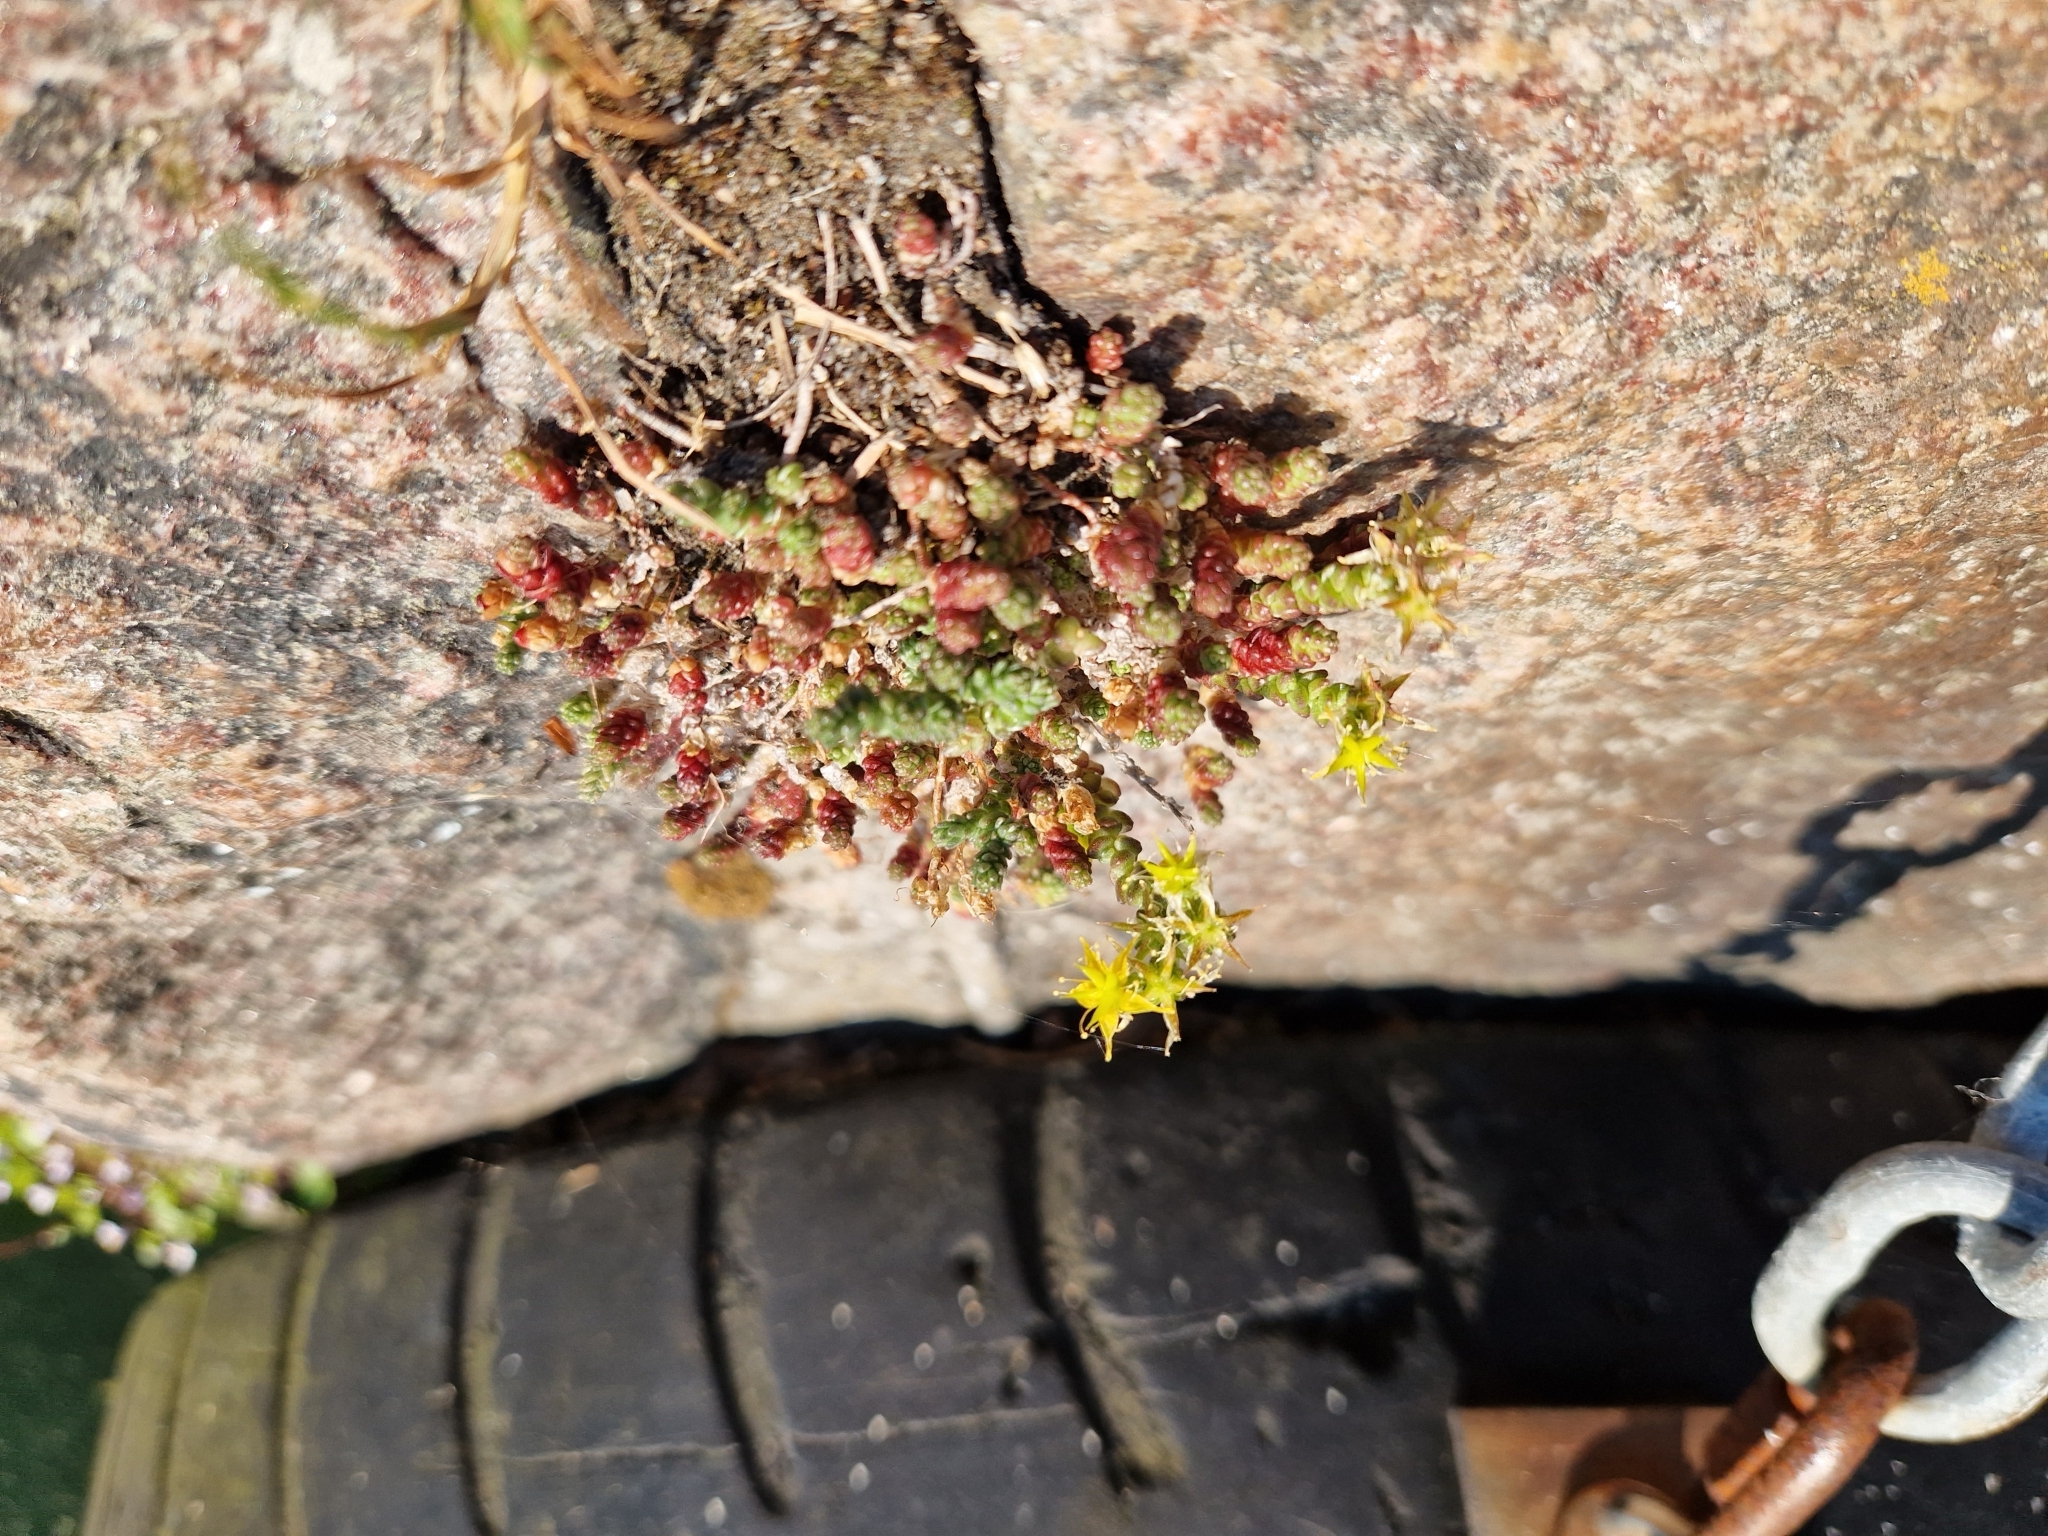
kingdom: Plantae
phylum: Tracheophyta
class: Magnoliopsida
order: Saxifragales
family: Crassulaceae
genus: Sedum
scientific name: Sedum acre
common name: Biting stonecrop
